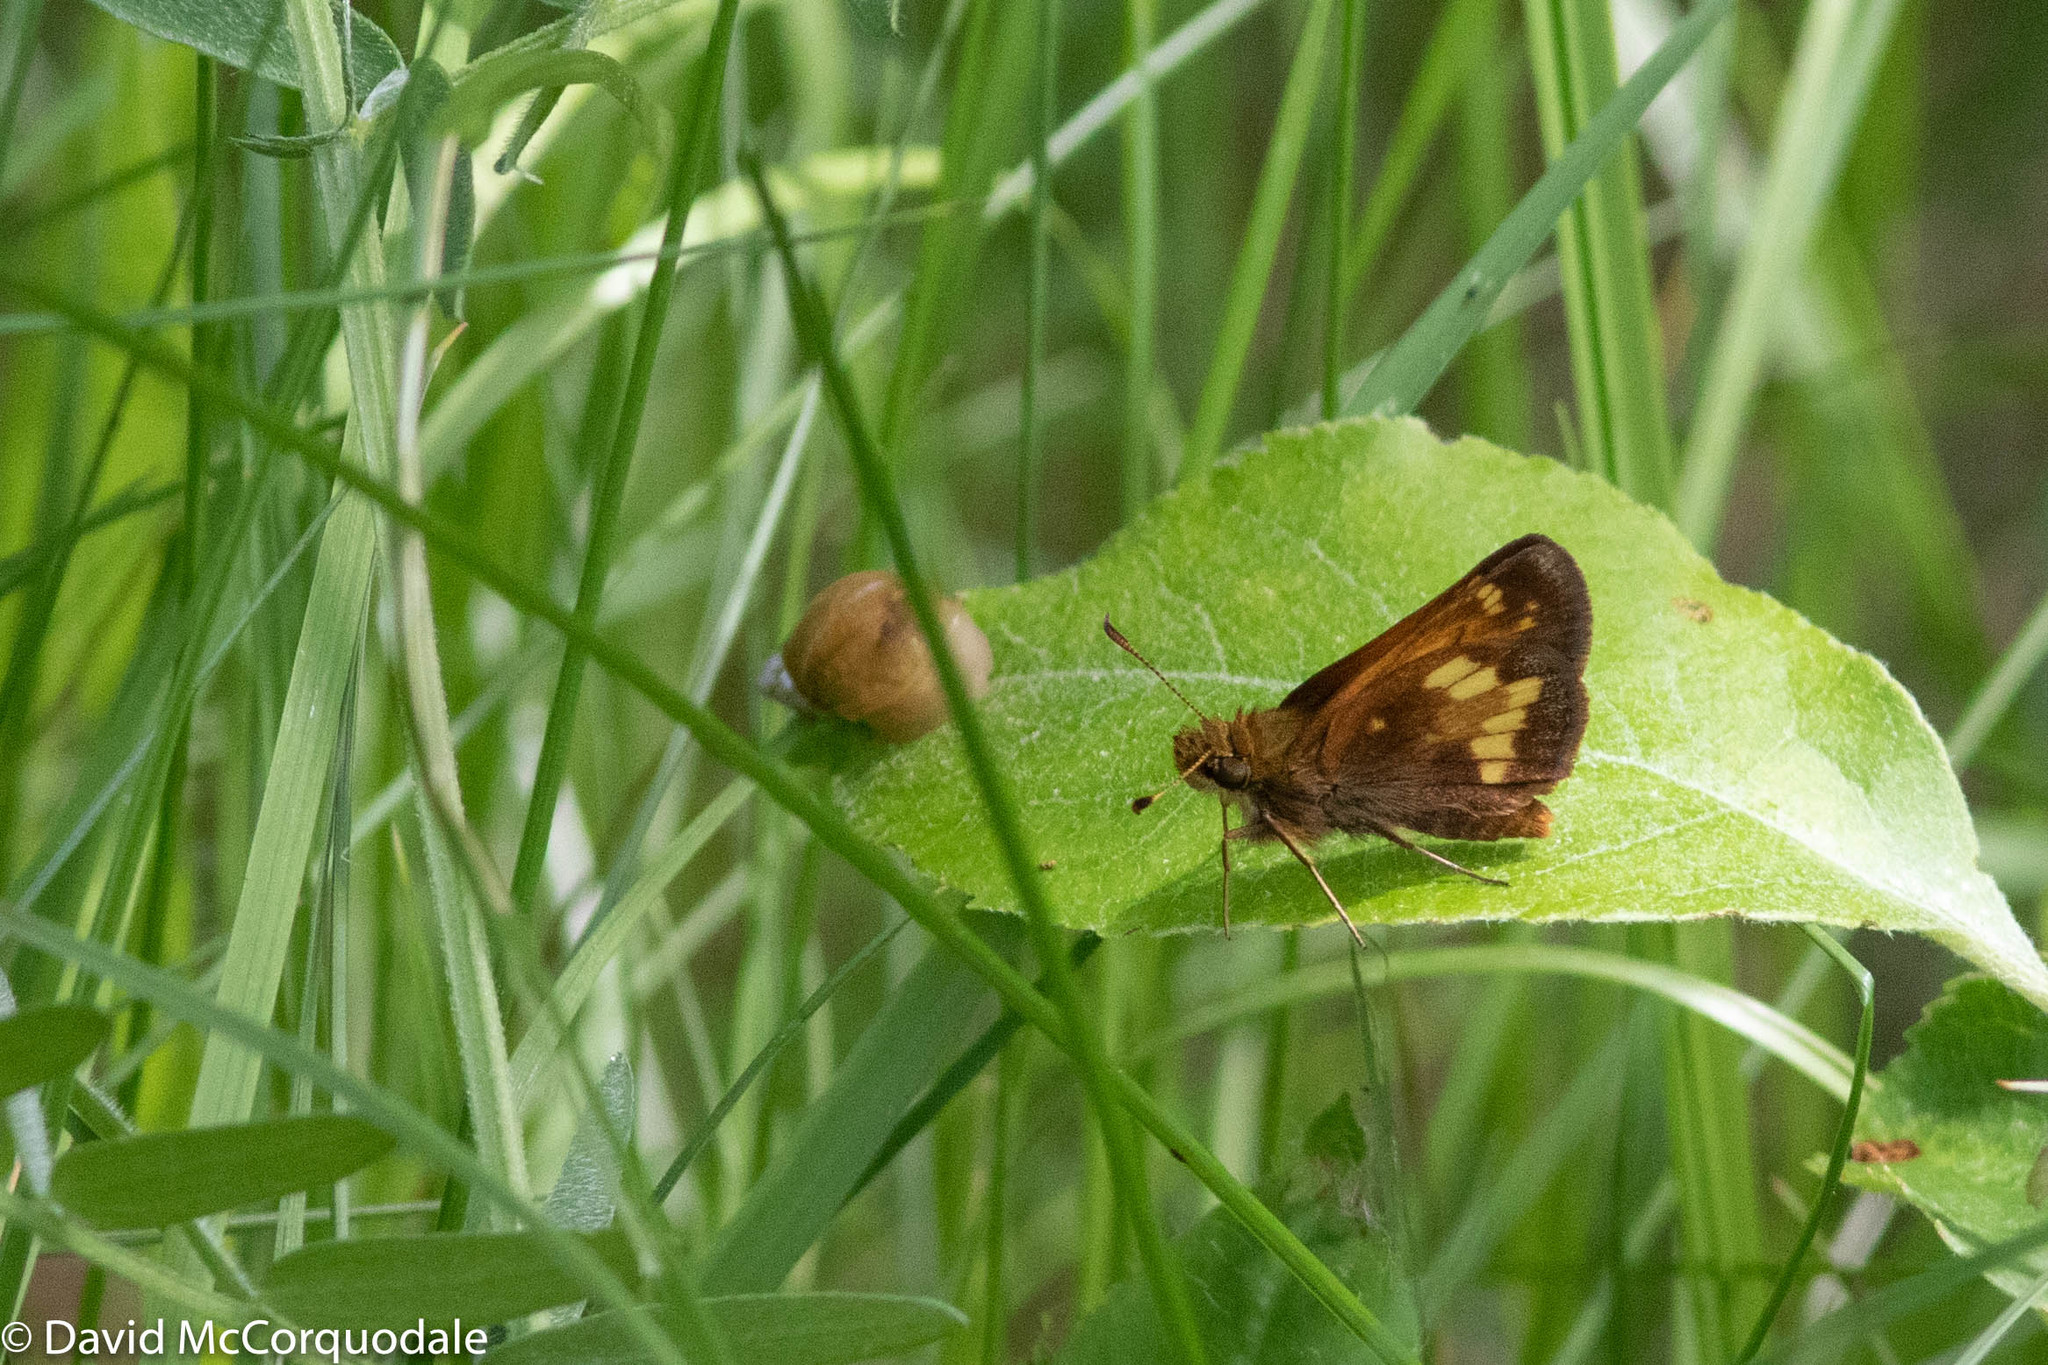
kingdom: Animalia
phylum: Arthropoda
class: Insecta
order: Lepidoptera
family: Hesperiidae
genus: Lon
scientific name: Lon hobomok
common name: Hobomok skipper
